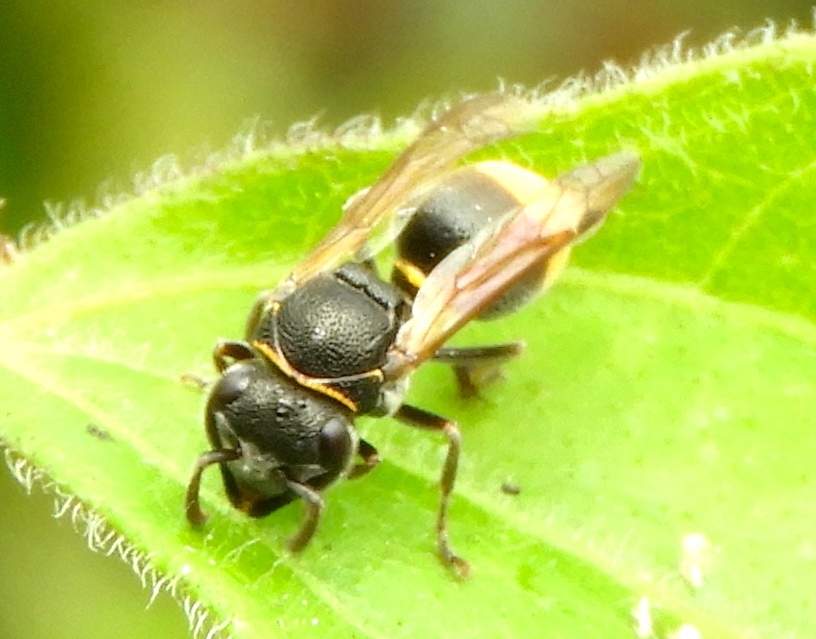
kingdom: Animalia
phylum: Arthropoda
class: Insecta
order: Hymenoptera
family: Vespidae
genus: Brachygastra
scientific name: Brachygastra azteca
